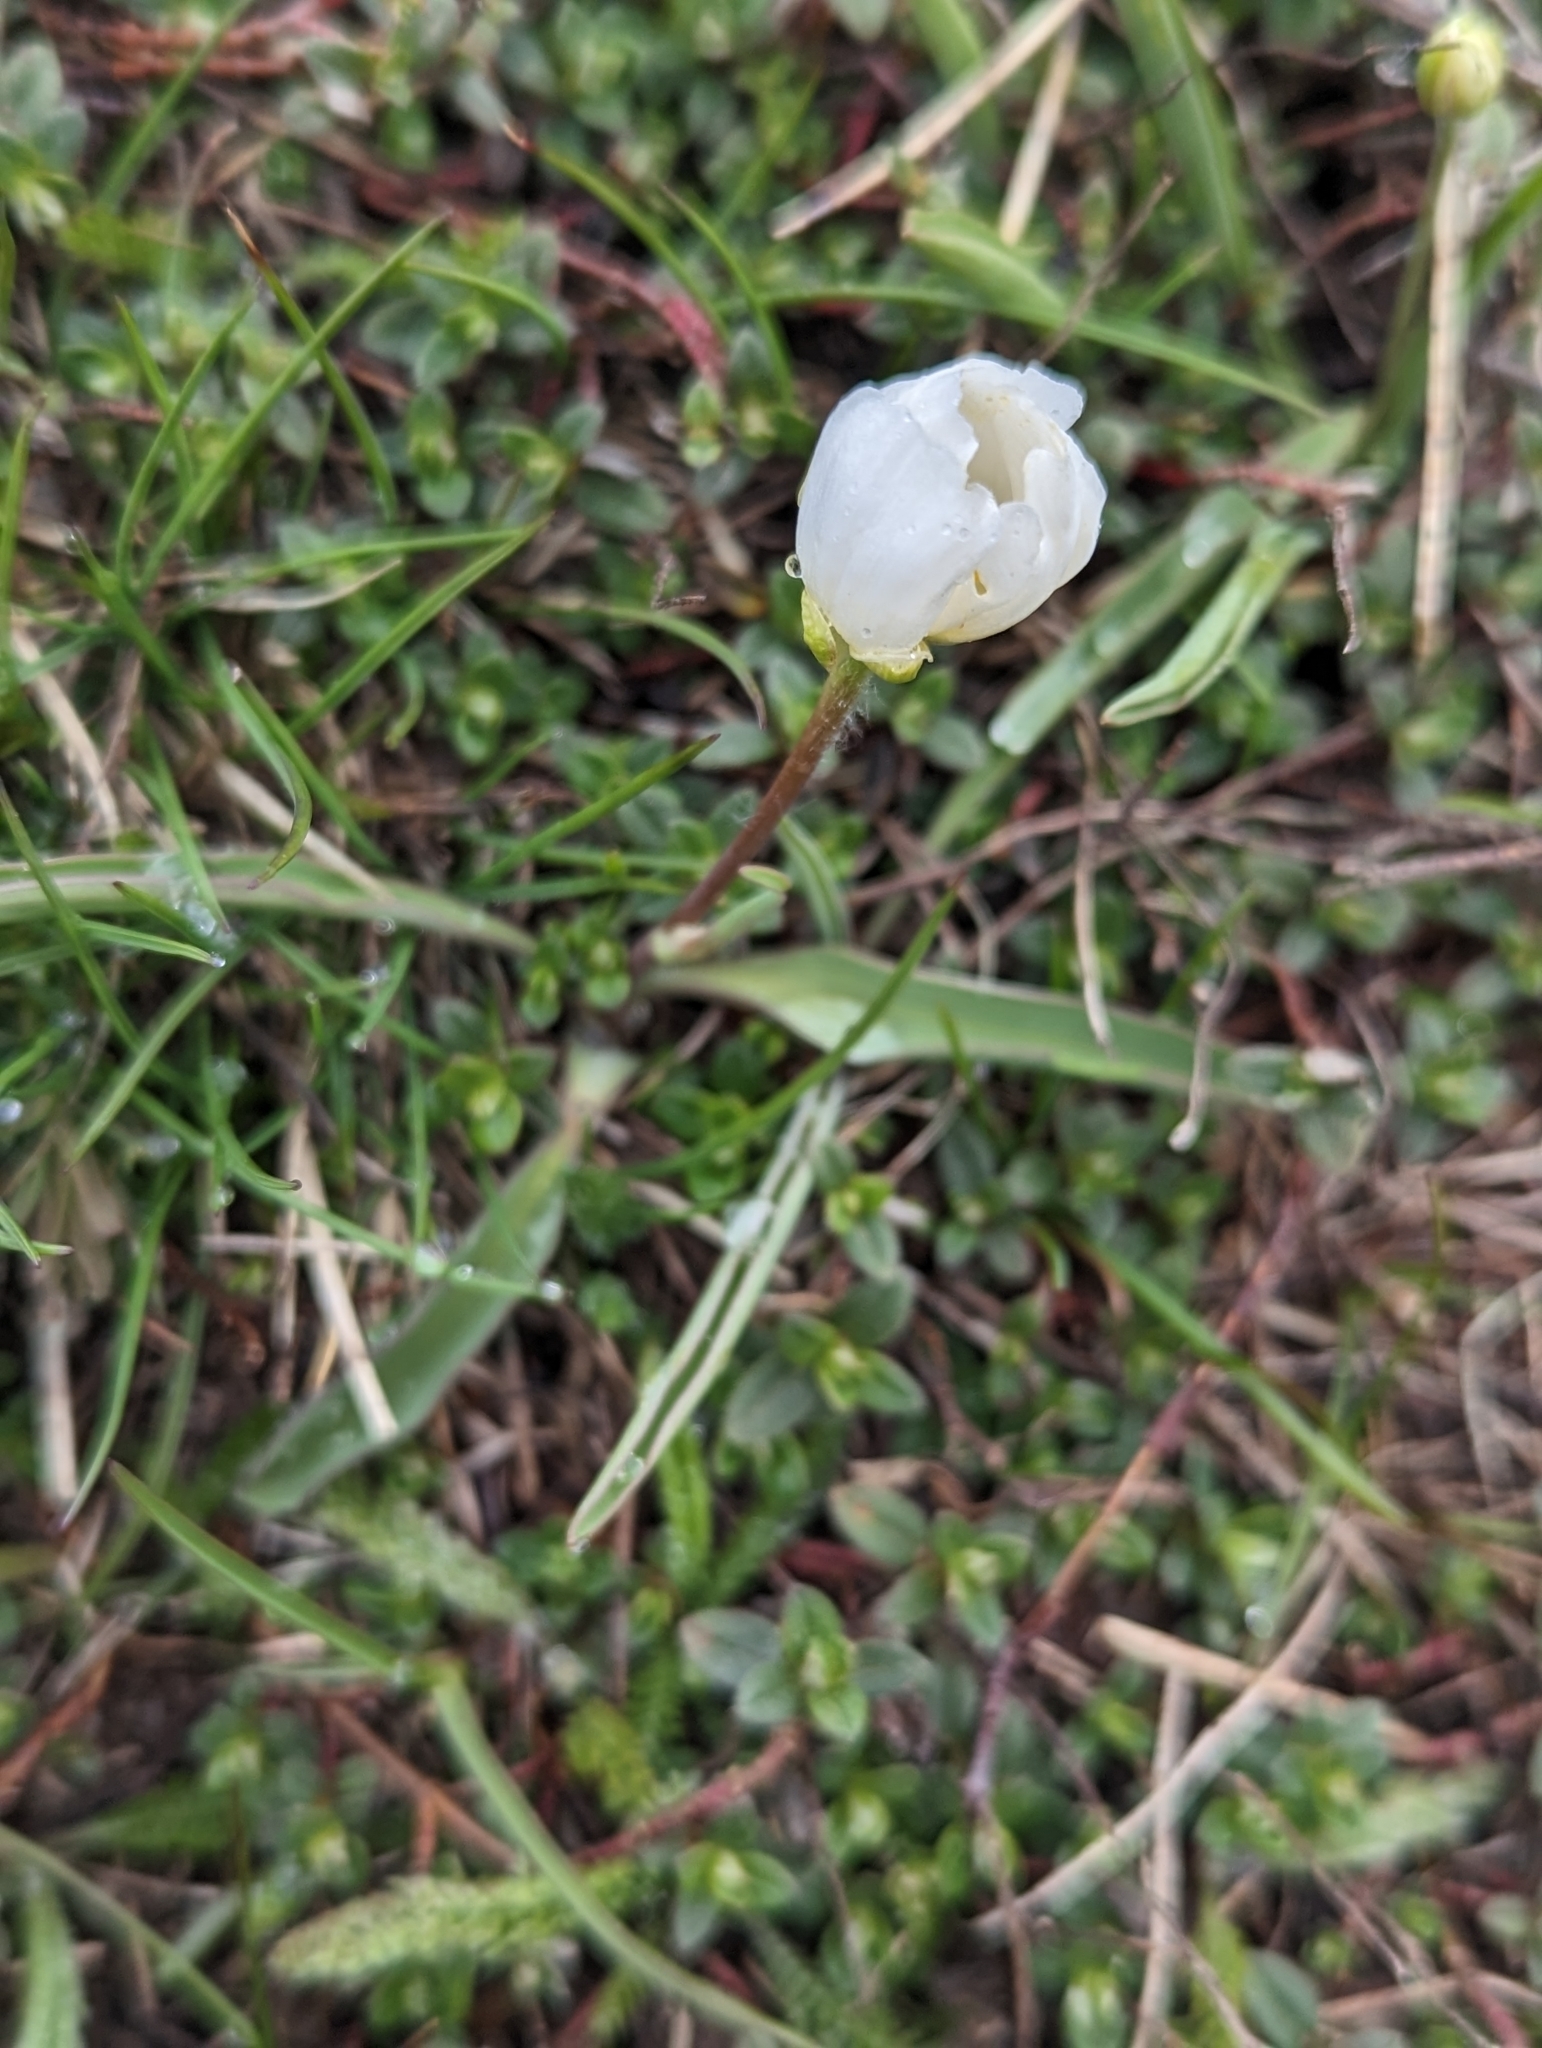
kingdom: Plantae
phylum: Tracheophyta
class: Magnoliopsida
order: Ranunculales
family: Ranunculaceae
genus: Ranunculus
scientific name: Ranunculus kuepferi
